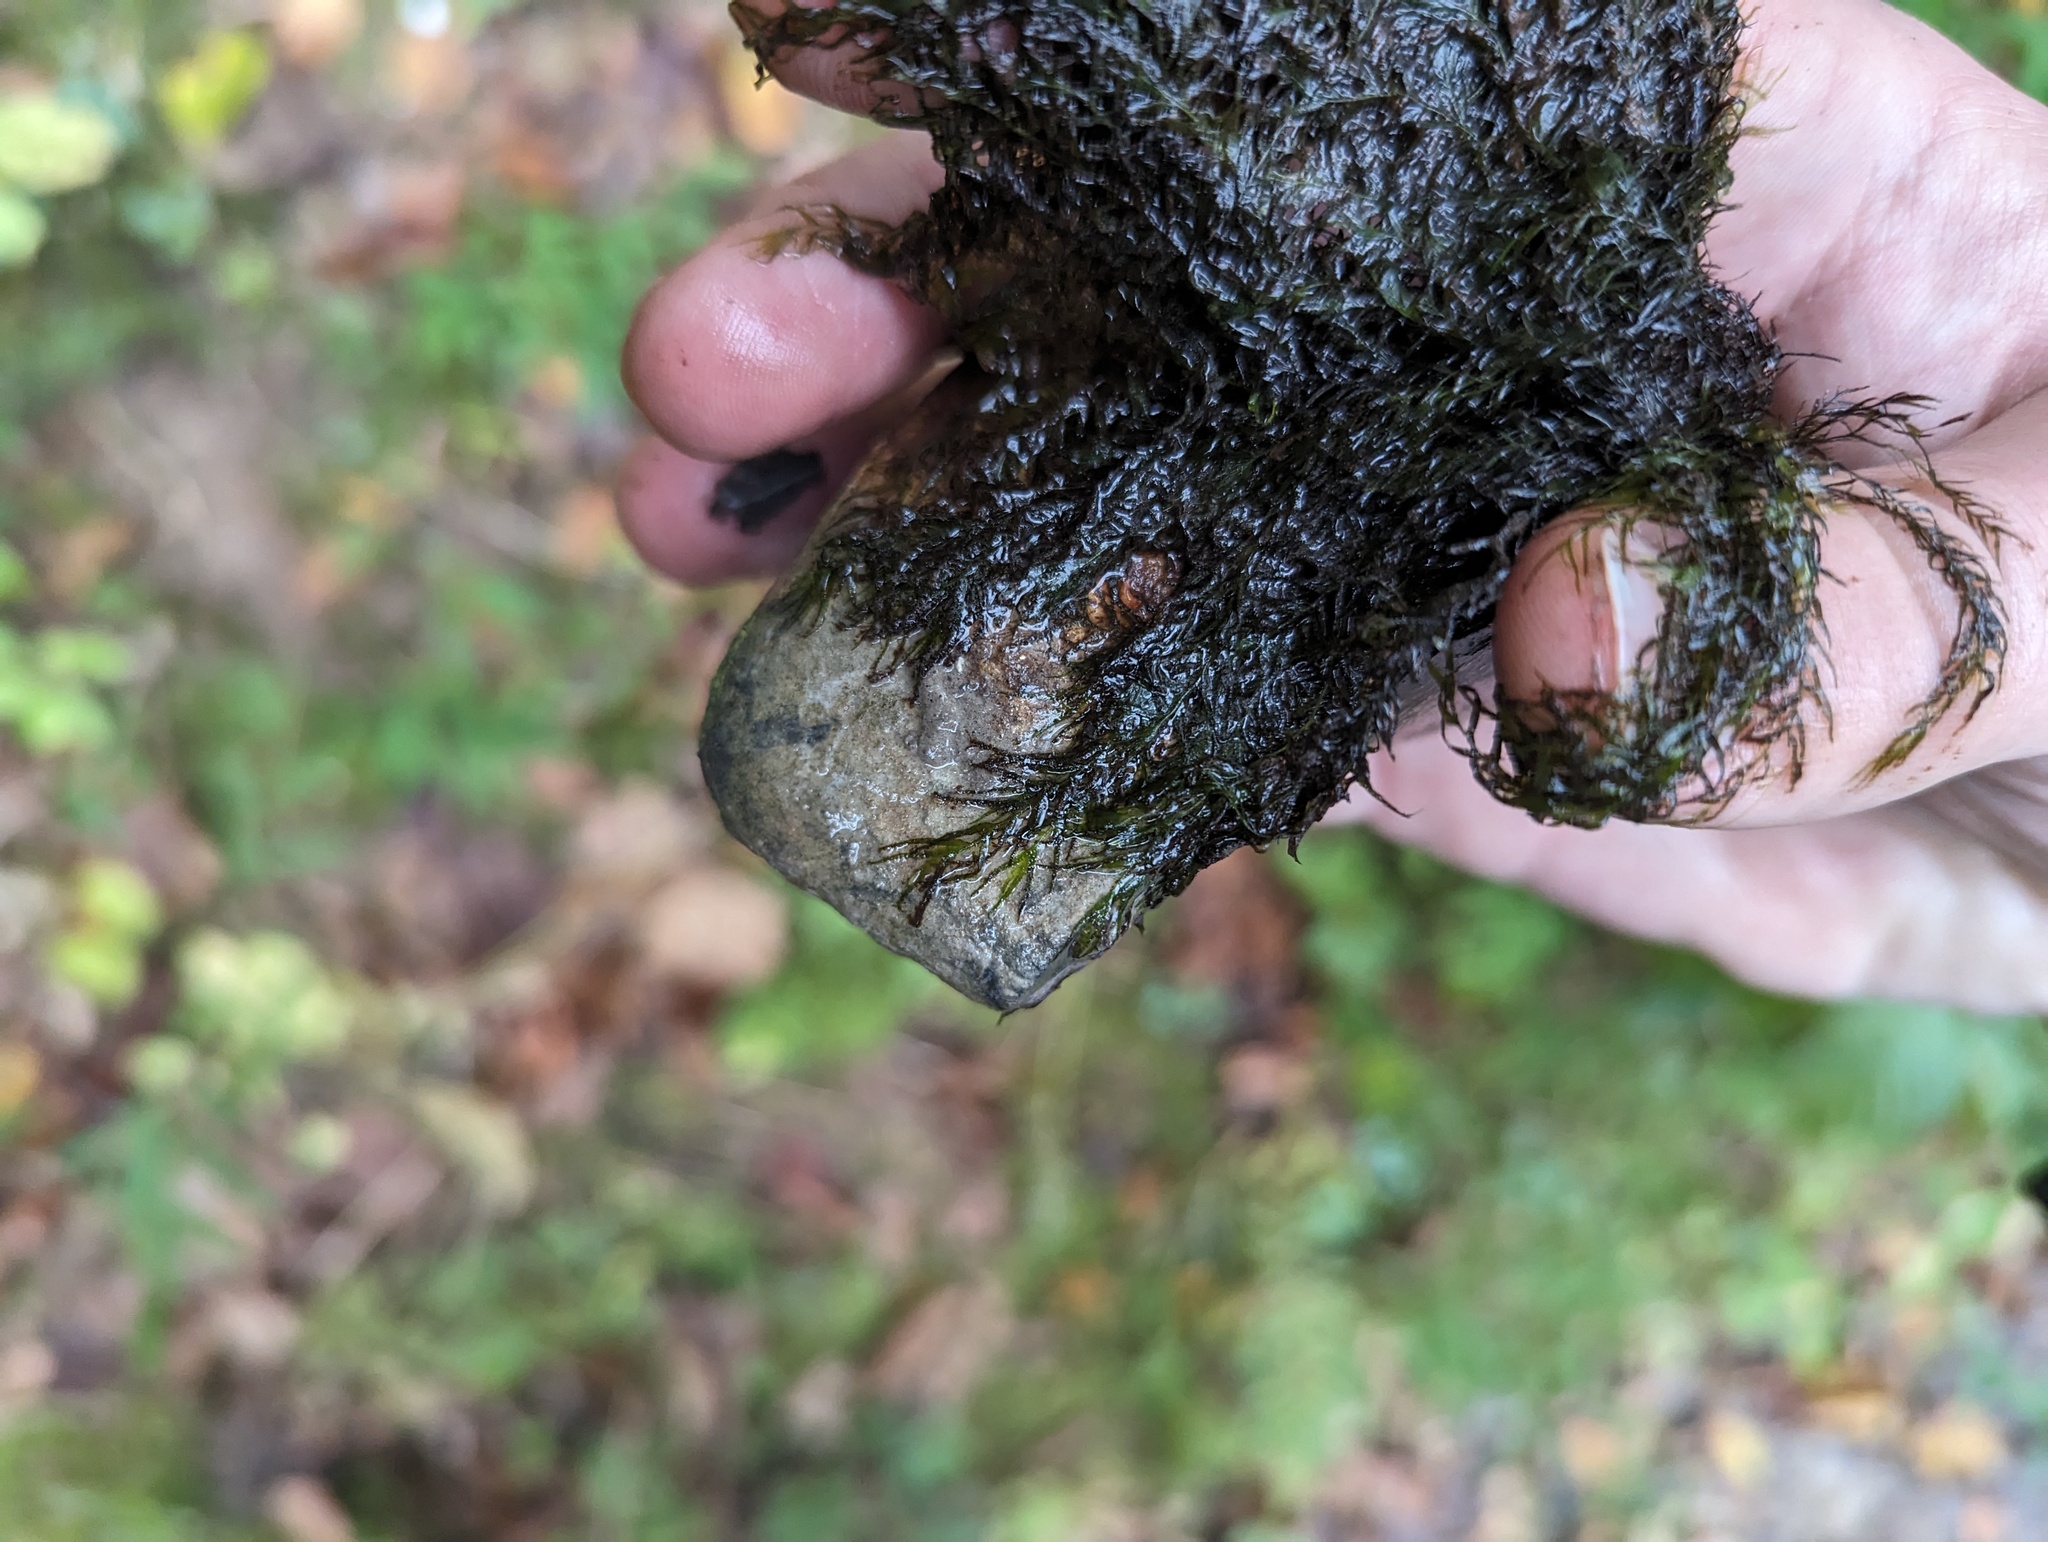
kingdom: Plantae
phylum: Bryophyta
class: Bryopsida
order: Dicranales
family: Fissidentaceae
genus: Fissidens
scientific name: Fissidens fontanus
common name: Fountain pocket-moss
